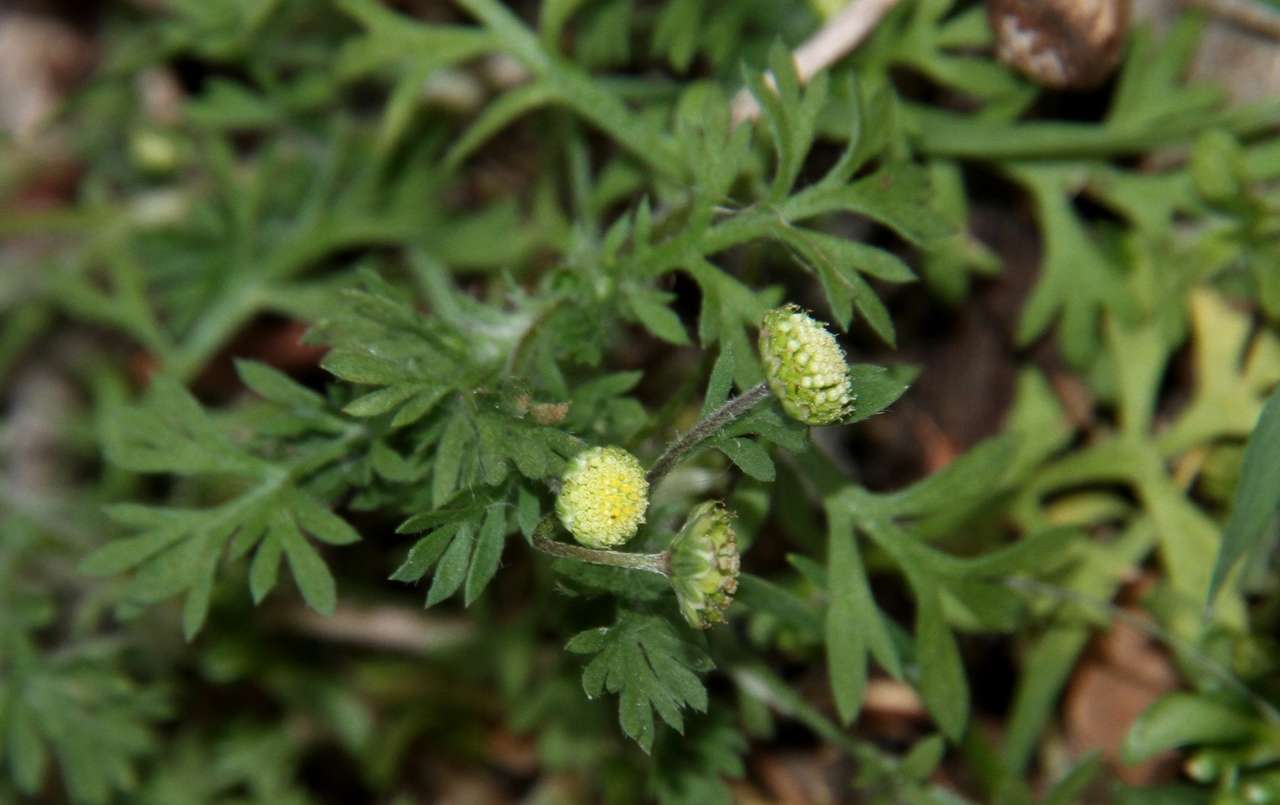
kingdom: Plantae
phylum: Tracheophyta
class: Magnoliopsida
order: Asterales
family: Asteraceae
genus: Cotula
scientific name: Cotula australis
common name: Australian waterbuttons
